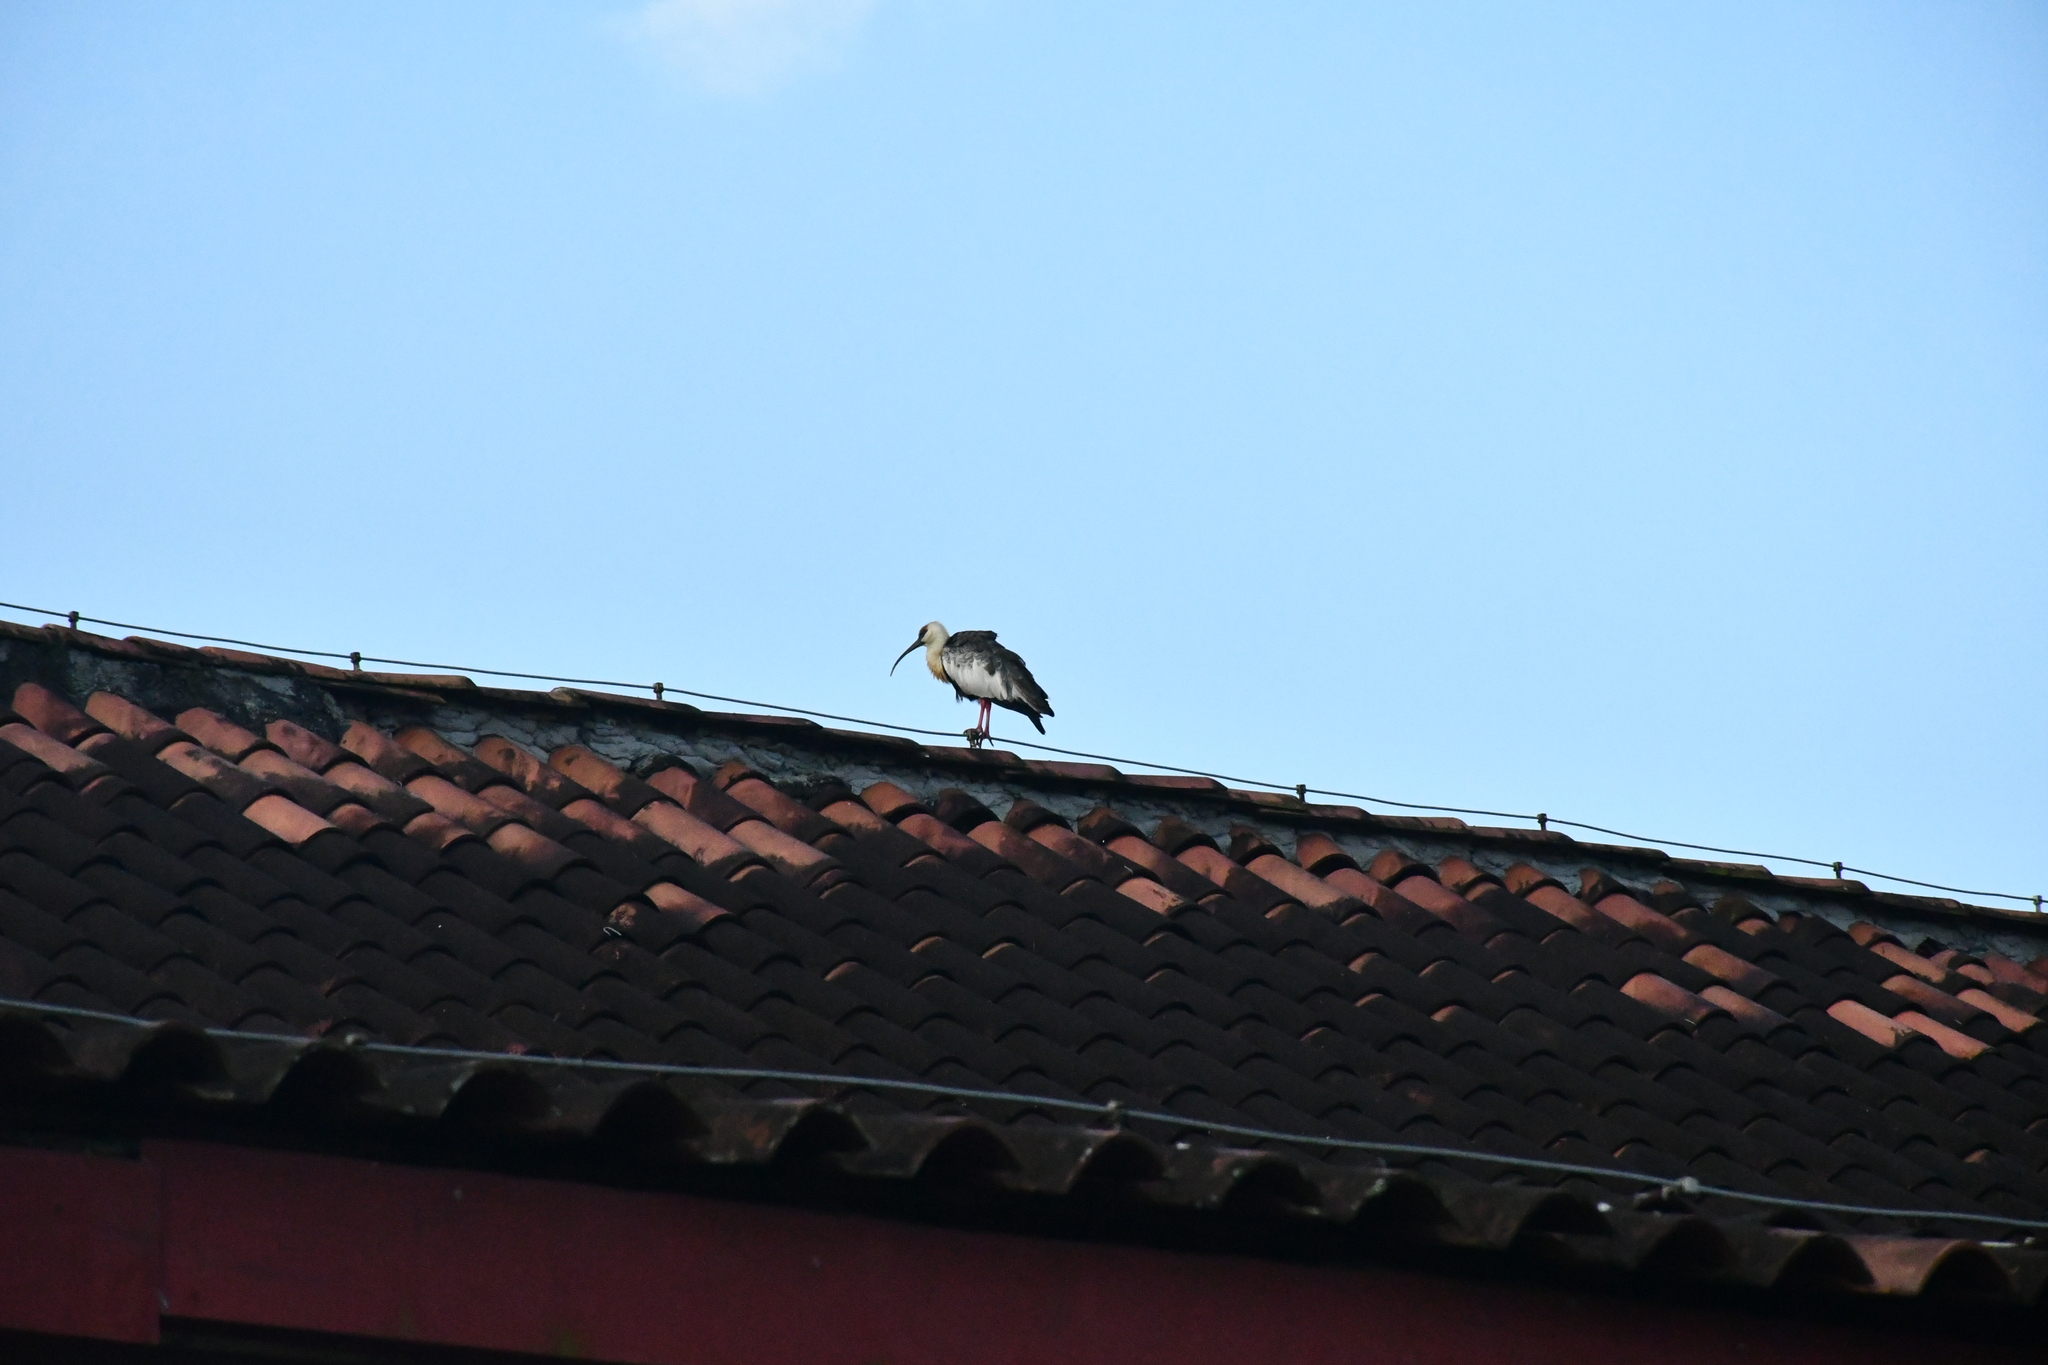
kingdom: Animalia
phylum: Chordata
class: Aves
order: Pelecaniformes
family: Threskiornithidae
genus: Theristicus
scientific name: Theristicus caudatus
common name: Buff-necked ibis
